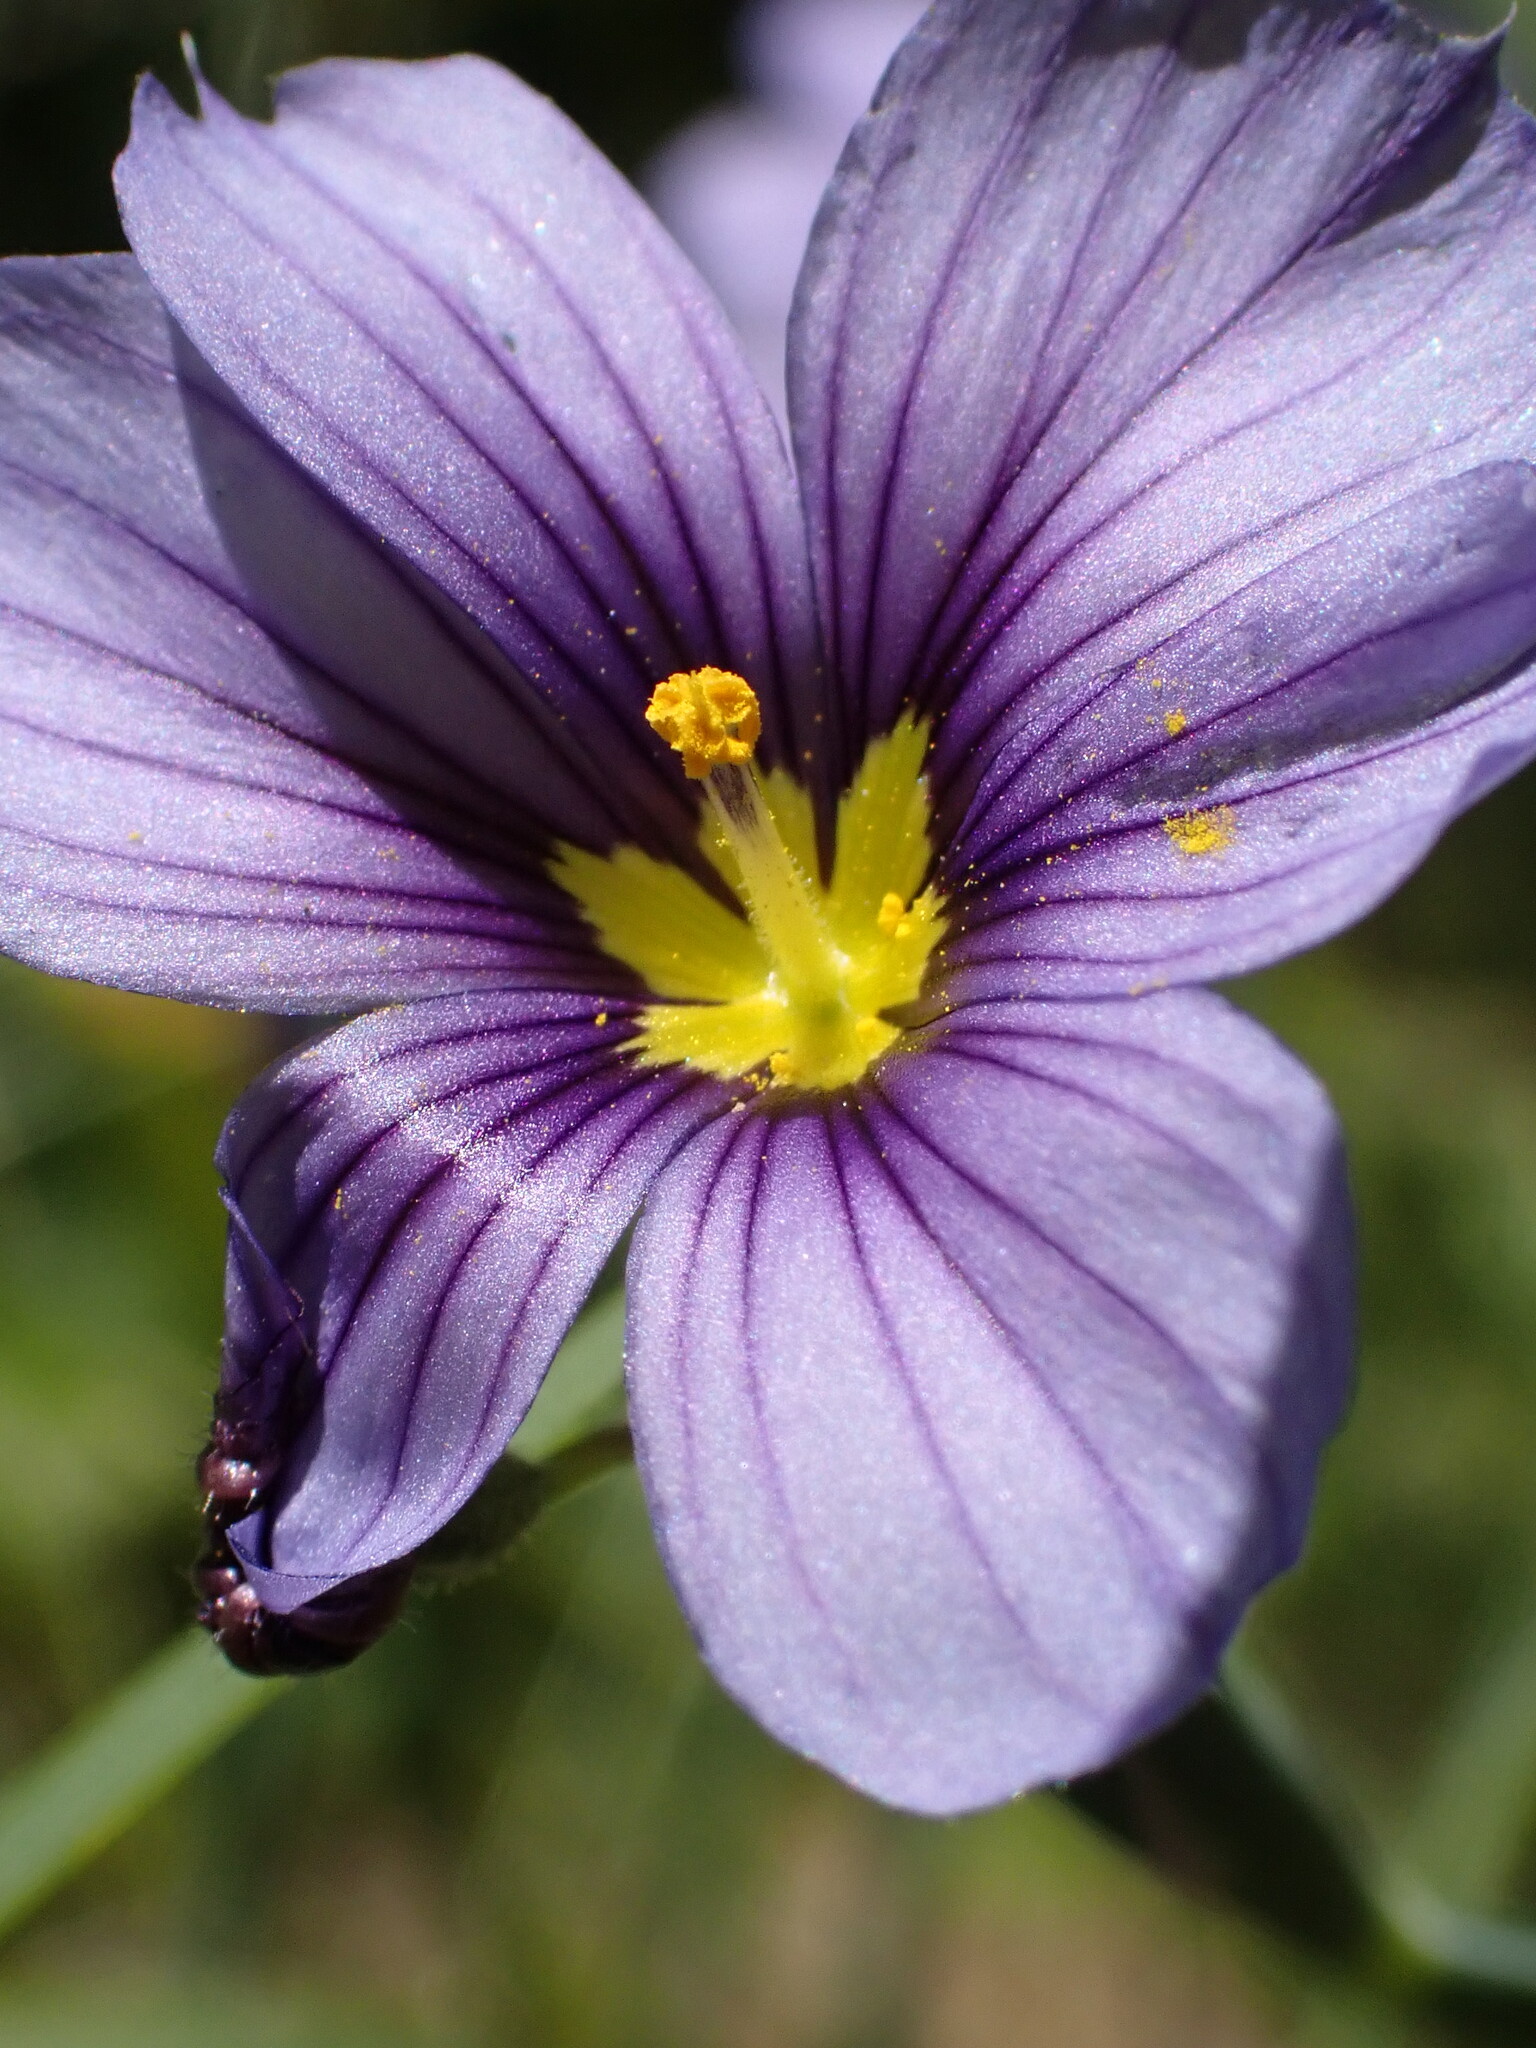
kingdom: Plantae
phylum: Tracheophyta
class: Liliopsida
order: Asparagales
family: Iridaceae
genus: Sisyrinchium
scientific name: Sisyrinchium bellum
